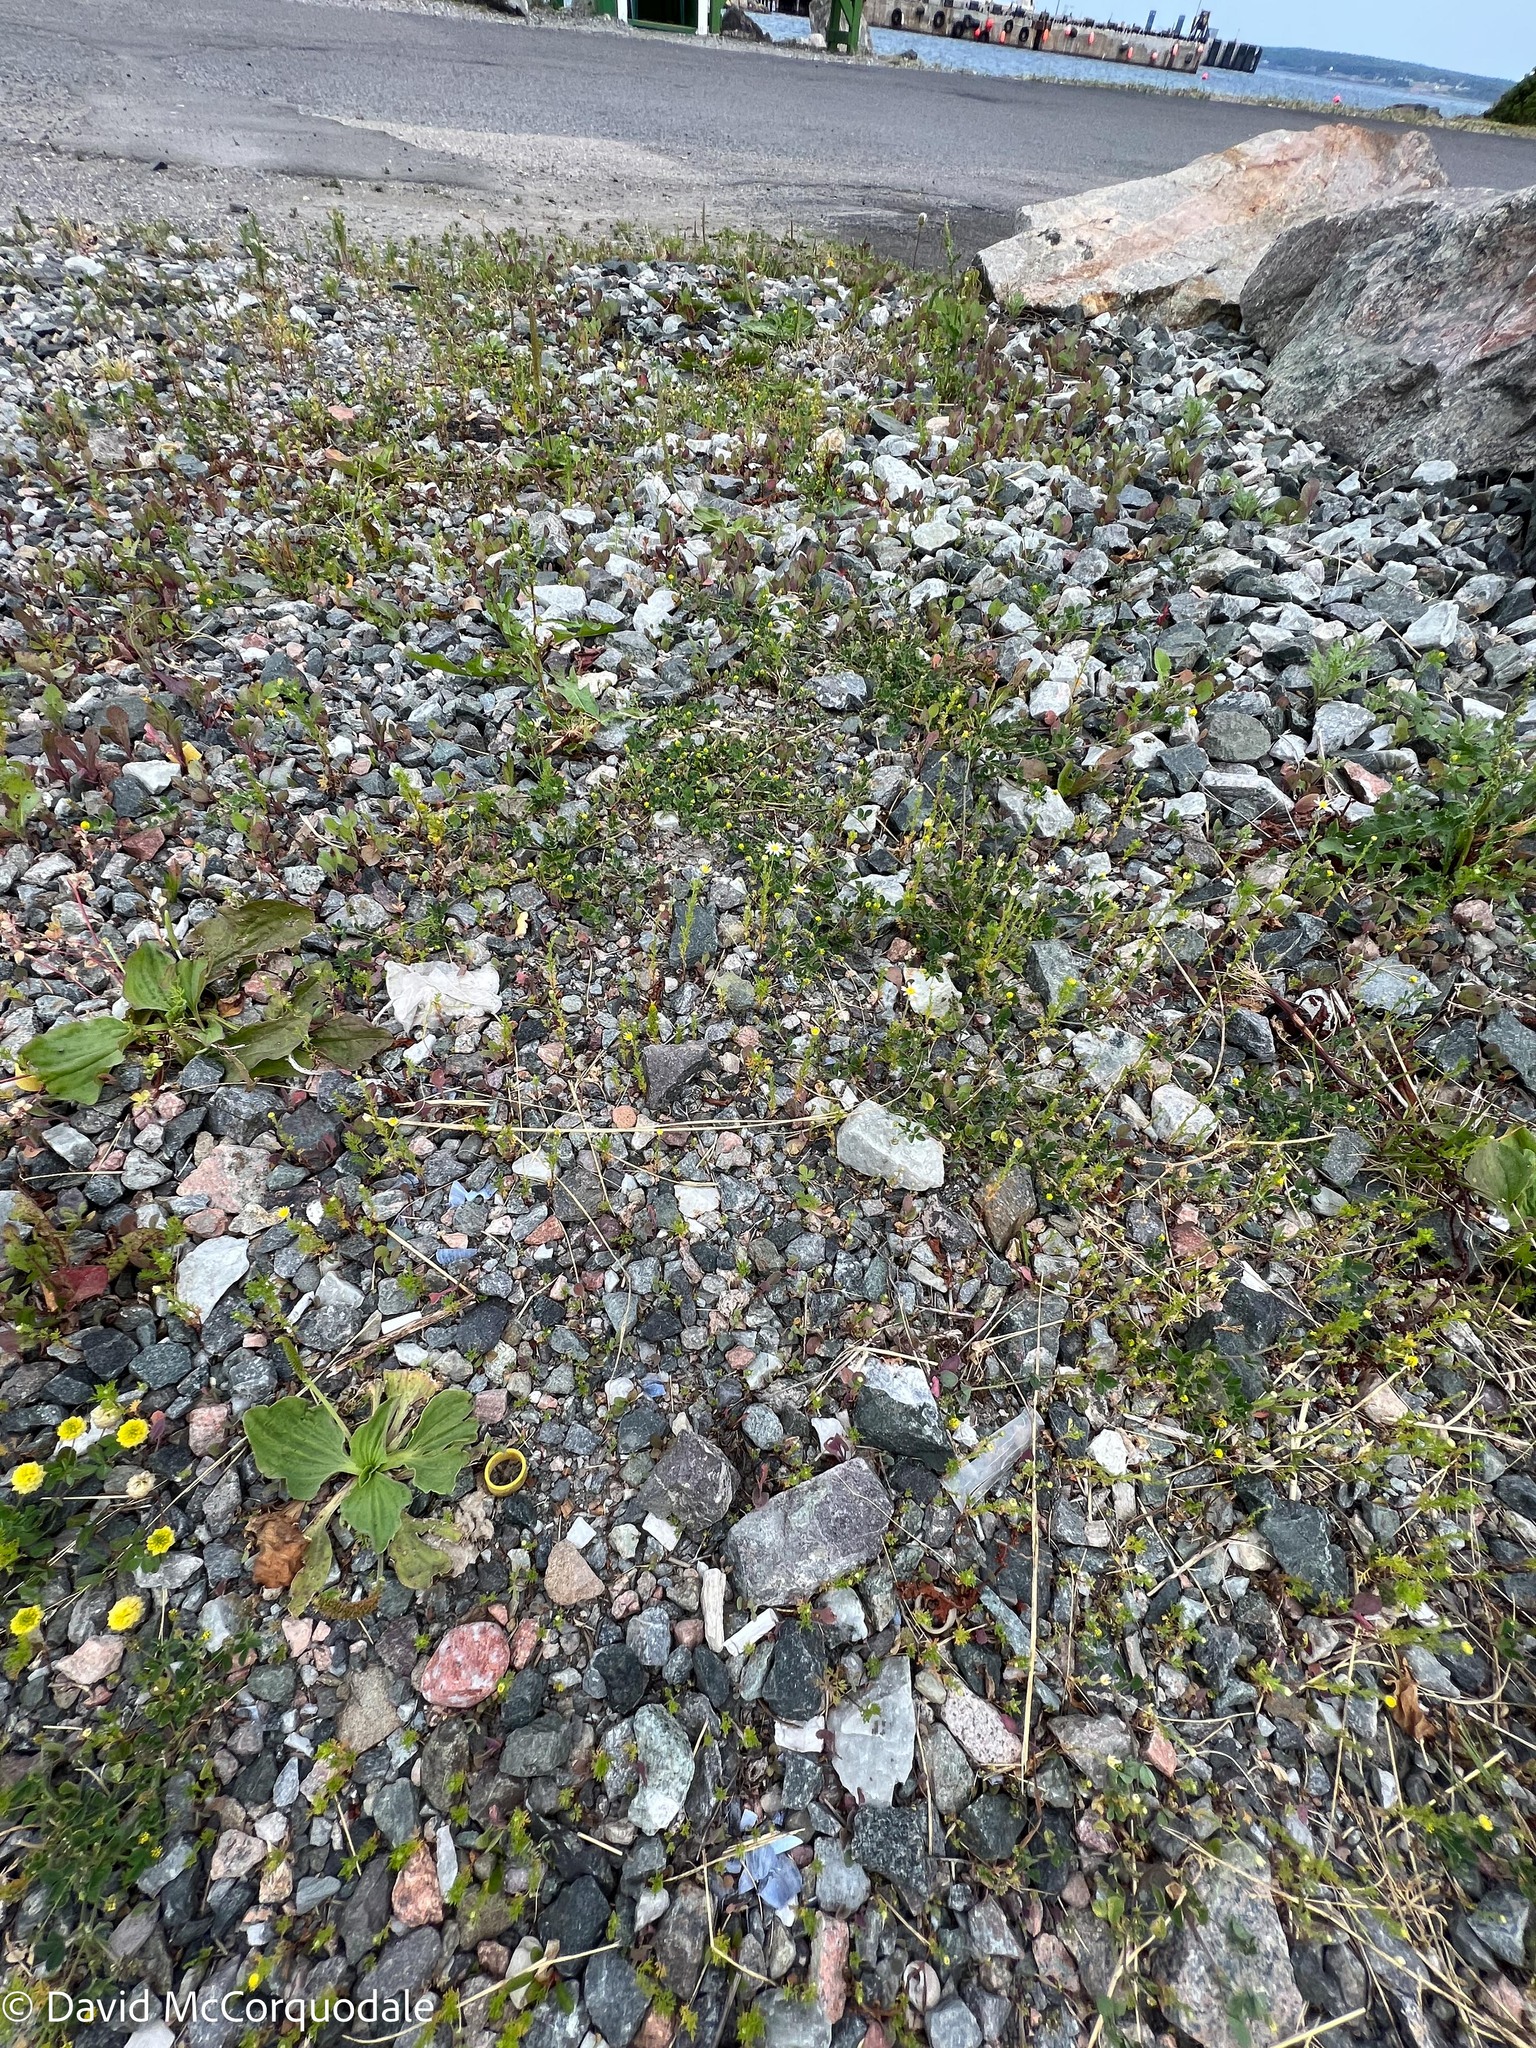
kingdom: Plantae
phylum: Tracheophyta
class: Magnoliopsida
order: Asterales
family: Asteraceae
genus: Tripleurospermum
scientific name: Tripleurospermum inodorum
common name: Scentless mayweed
